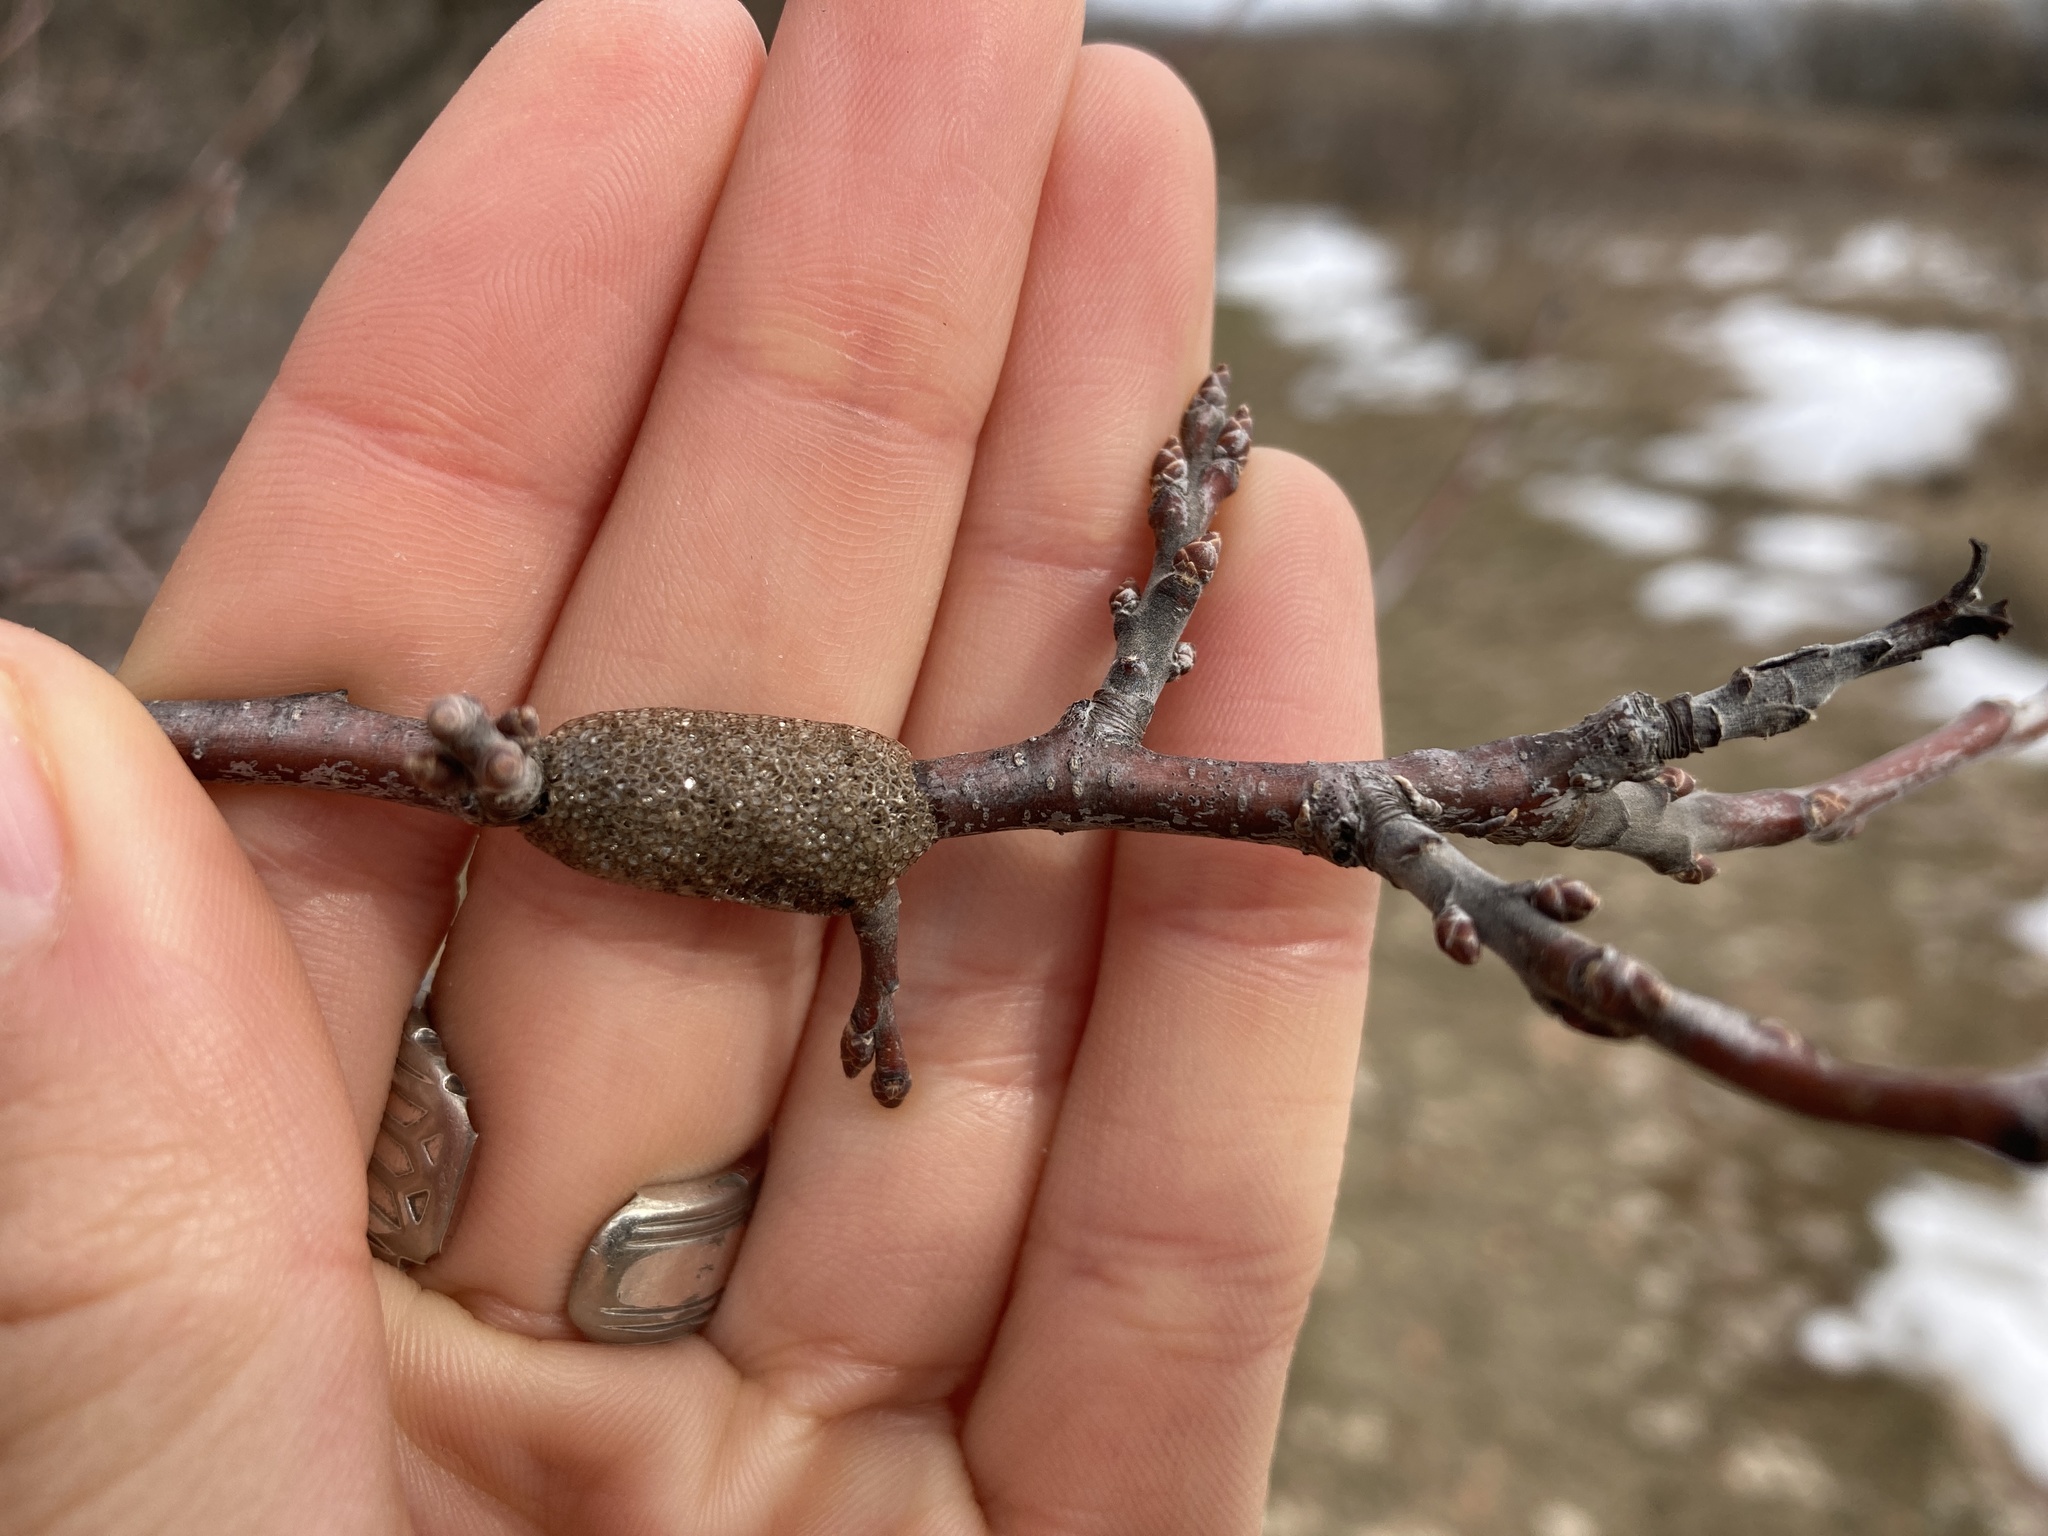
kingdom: Animalia
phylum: Arthropoda
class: Insecta
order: Lepidoptera
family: Lasiocampidae
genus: Malacosoma
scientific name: Malacosoma americana
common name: Eastern tent caterpillar moth
